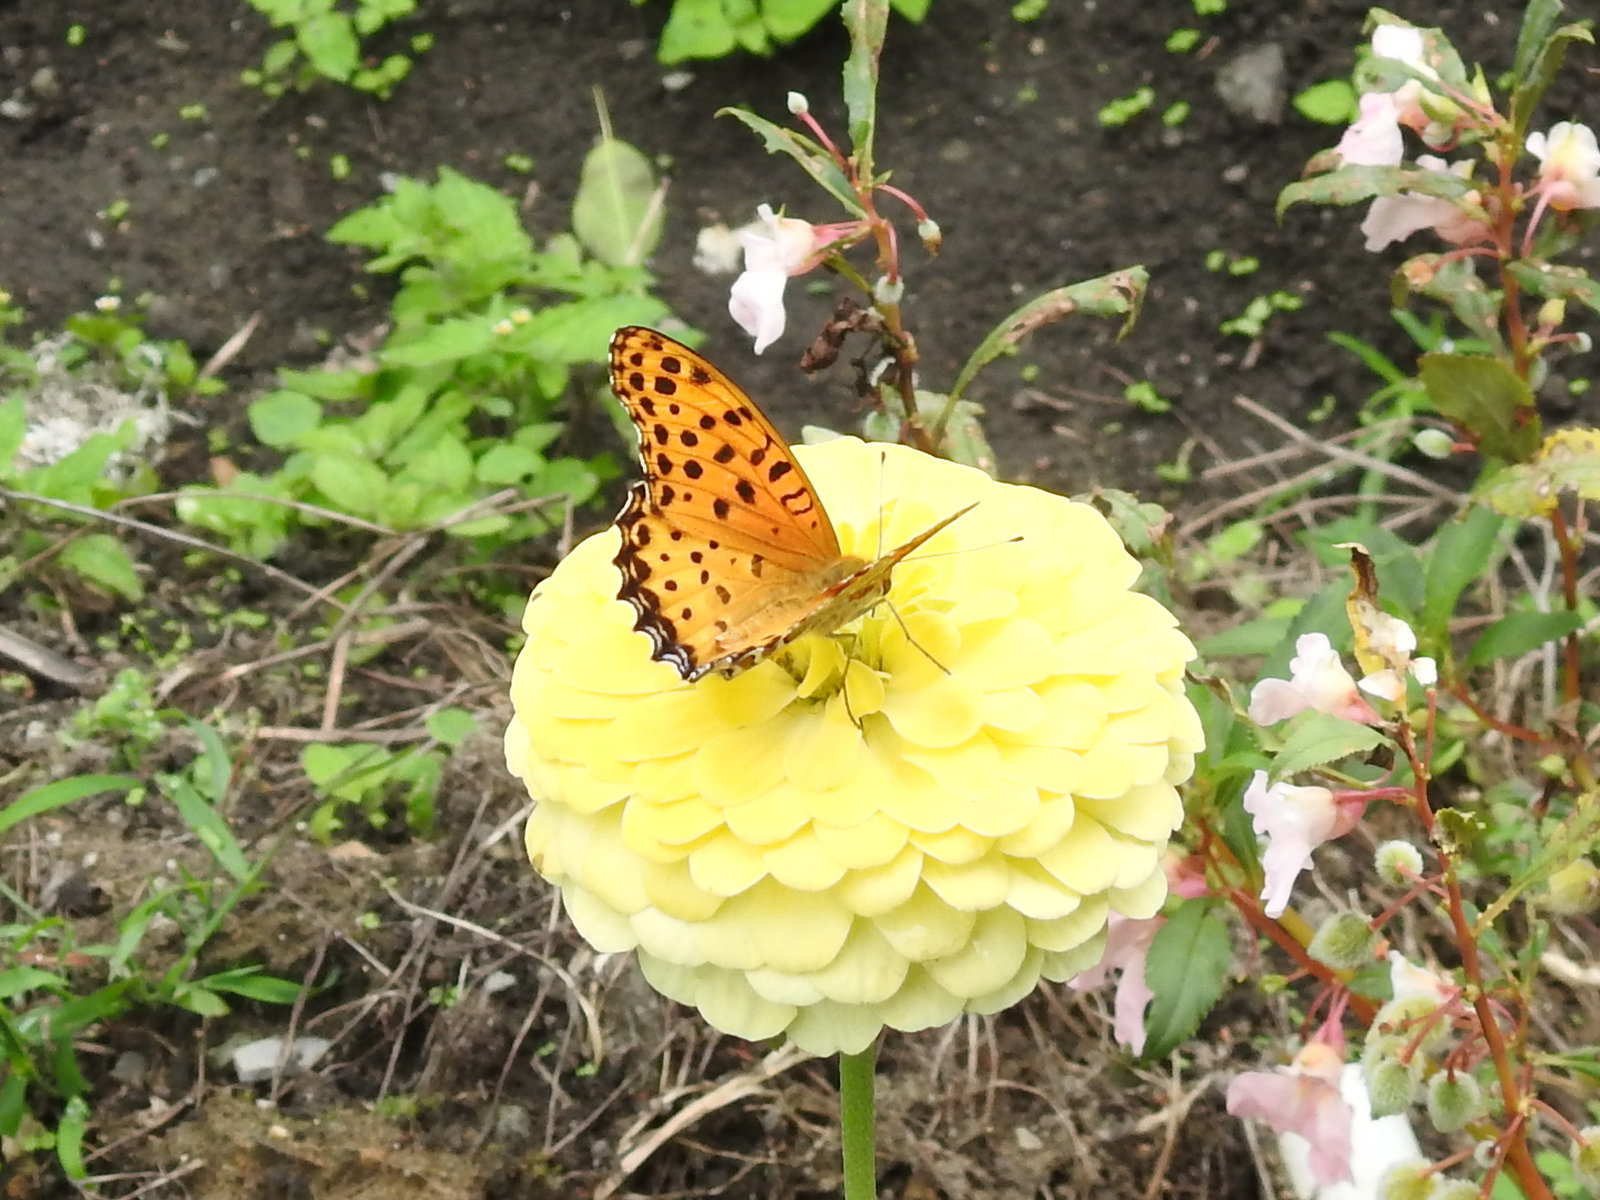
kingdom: Animalia
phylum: Arthropoda
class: Insecta
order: Lepidoptera
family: Nymphalidae
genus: Argynnis
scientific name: Argynnis hyperbius
